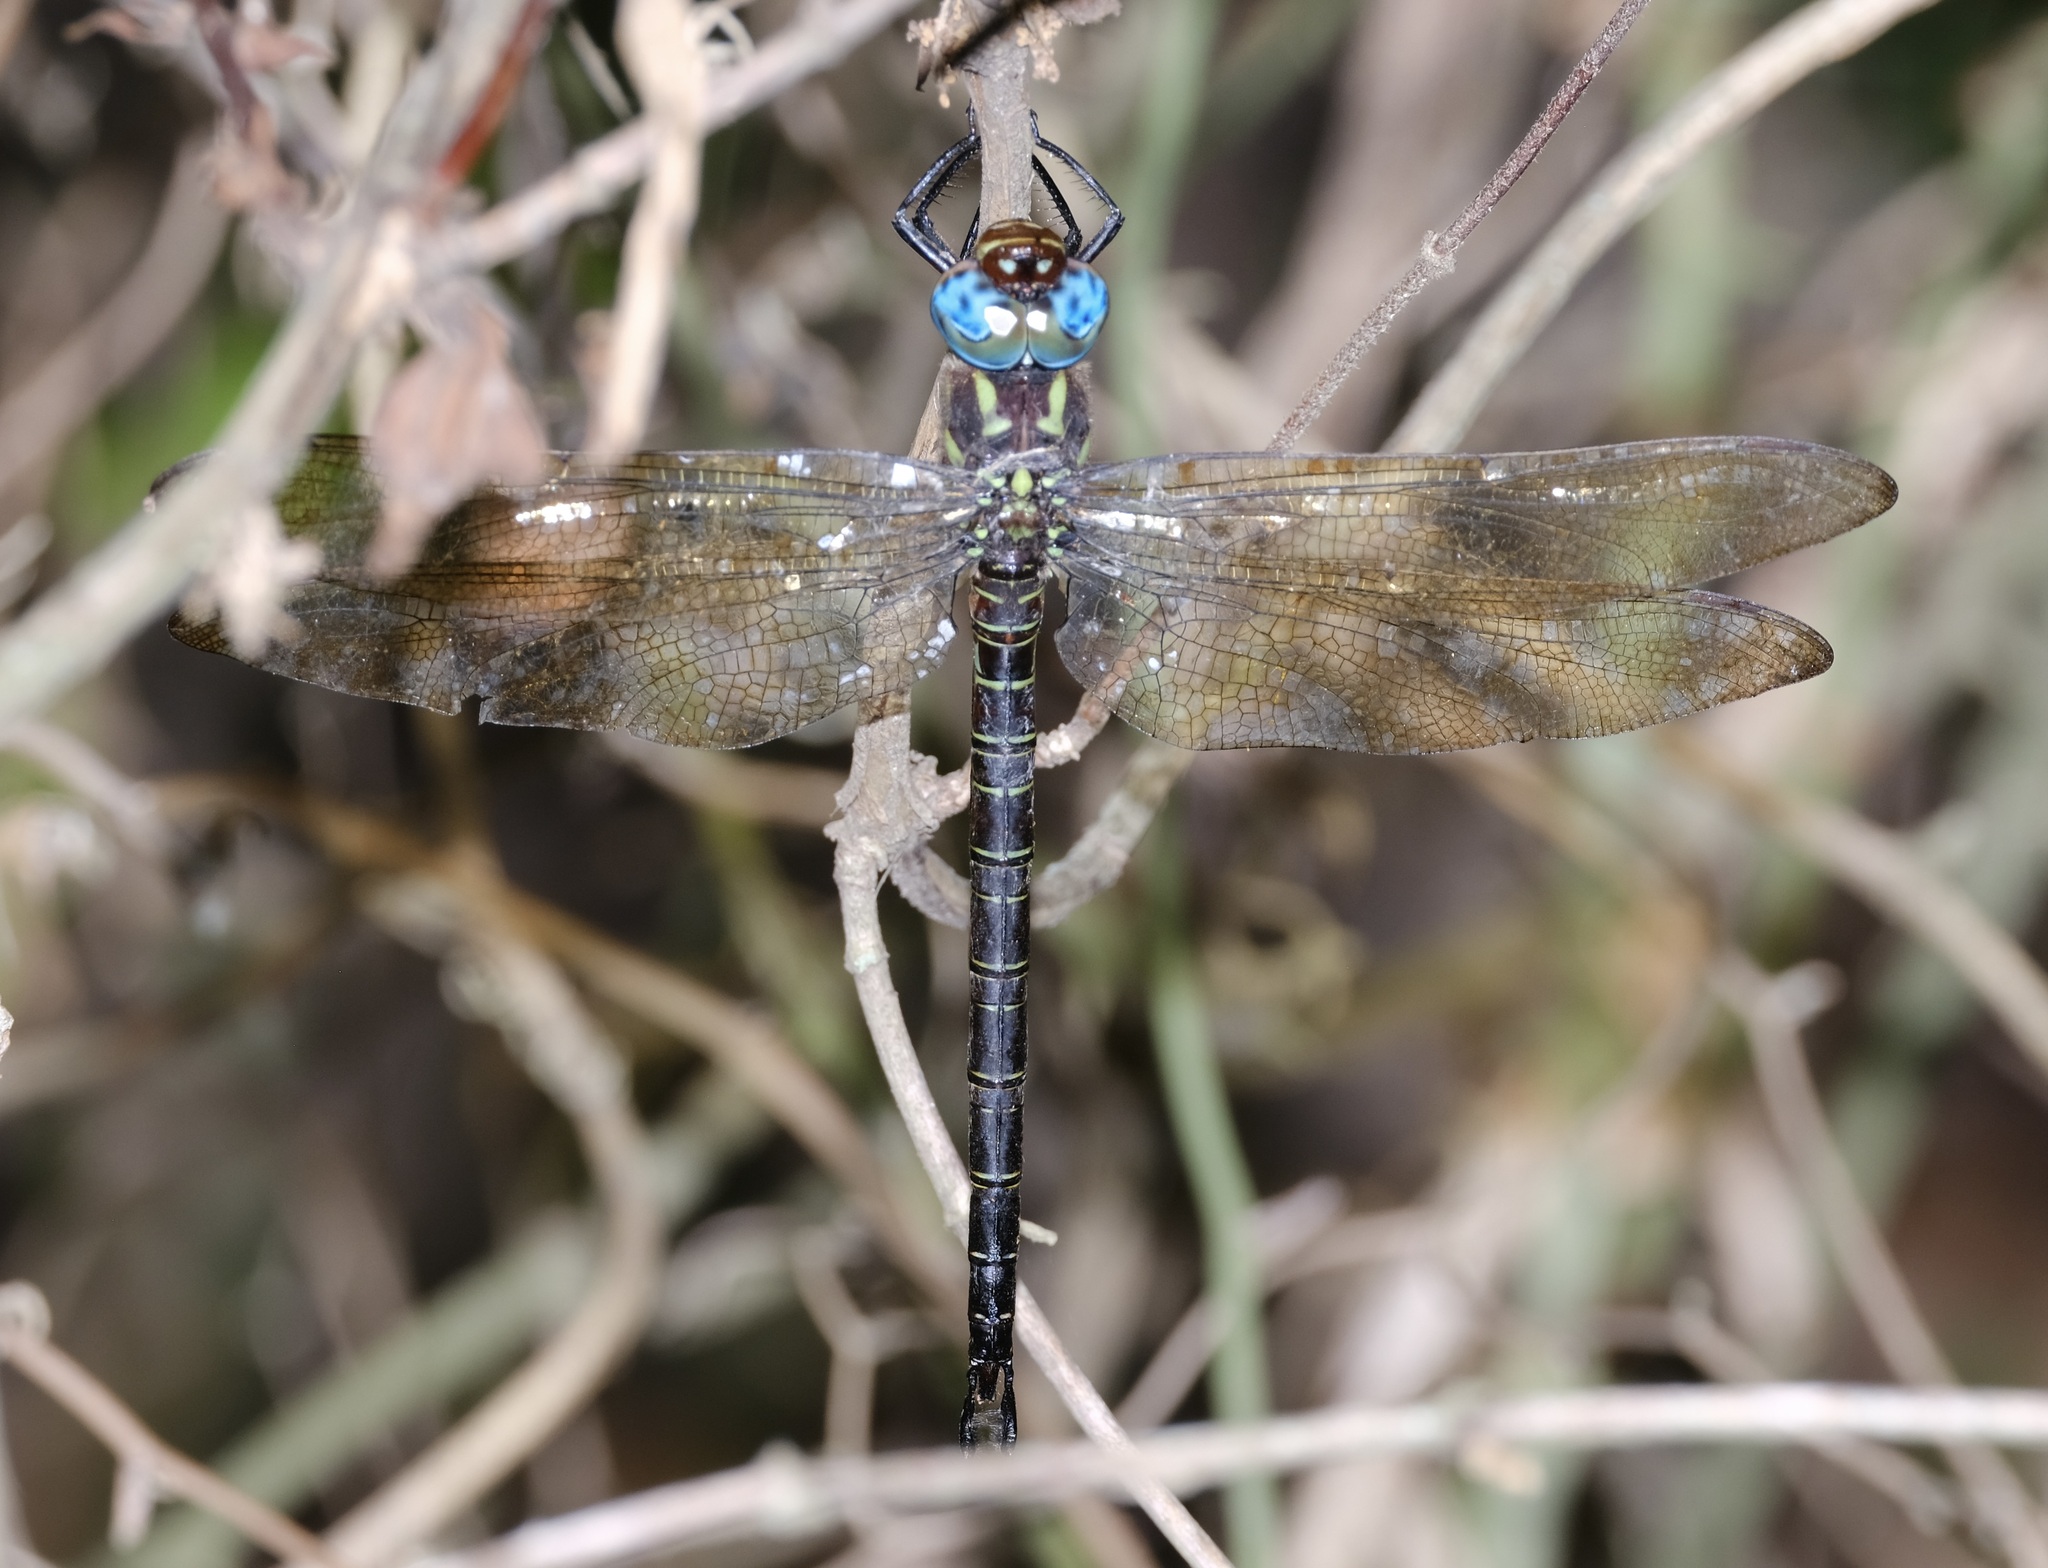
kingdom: Animalia
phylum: Arthropoda
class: Insecta
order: Odonata
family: Aeshnidae
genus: Epiaeschna
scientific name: Epiaeschna heros
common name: Swamp darner
